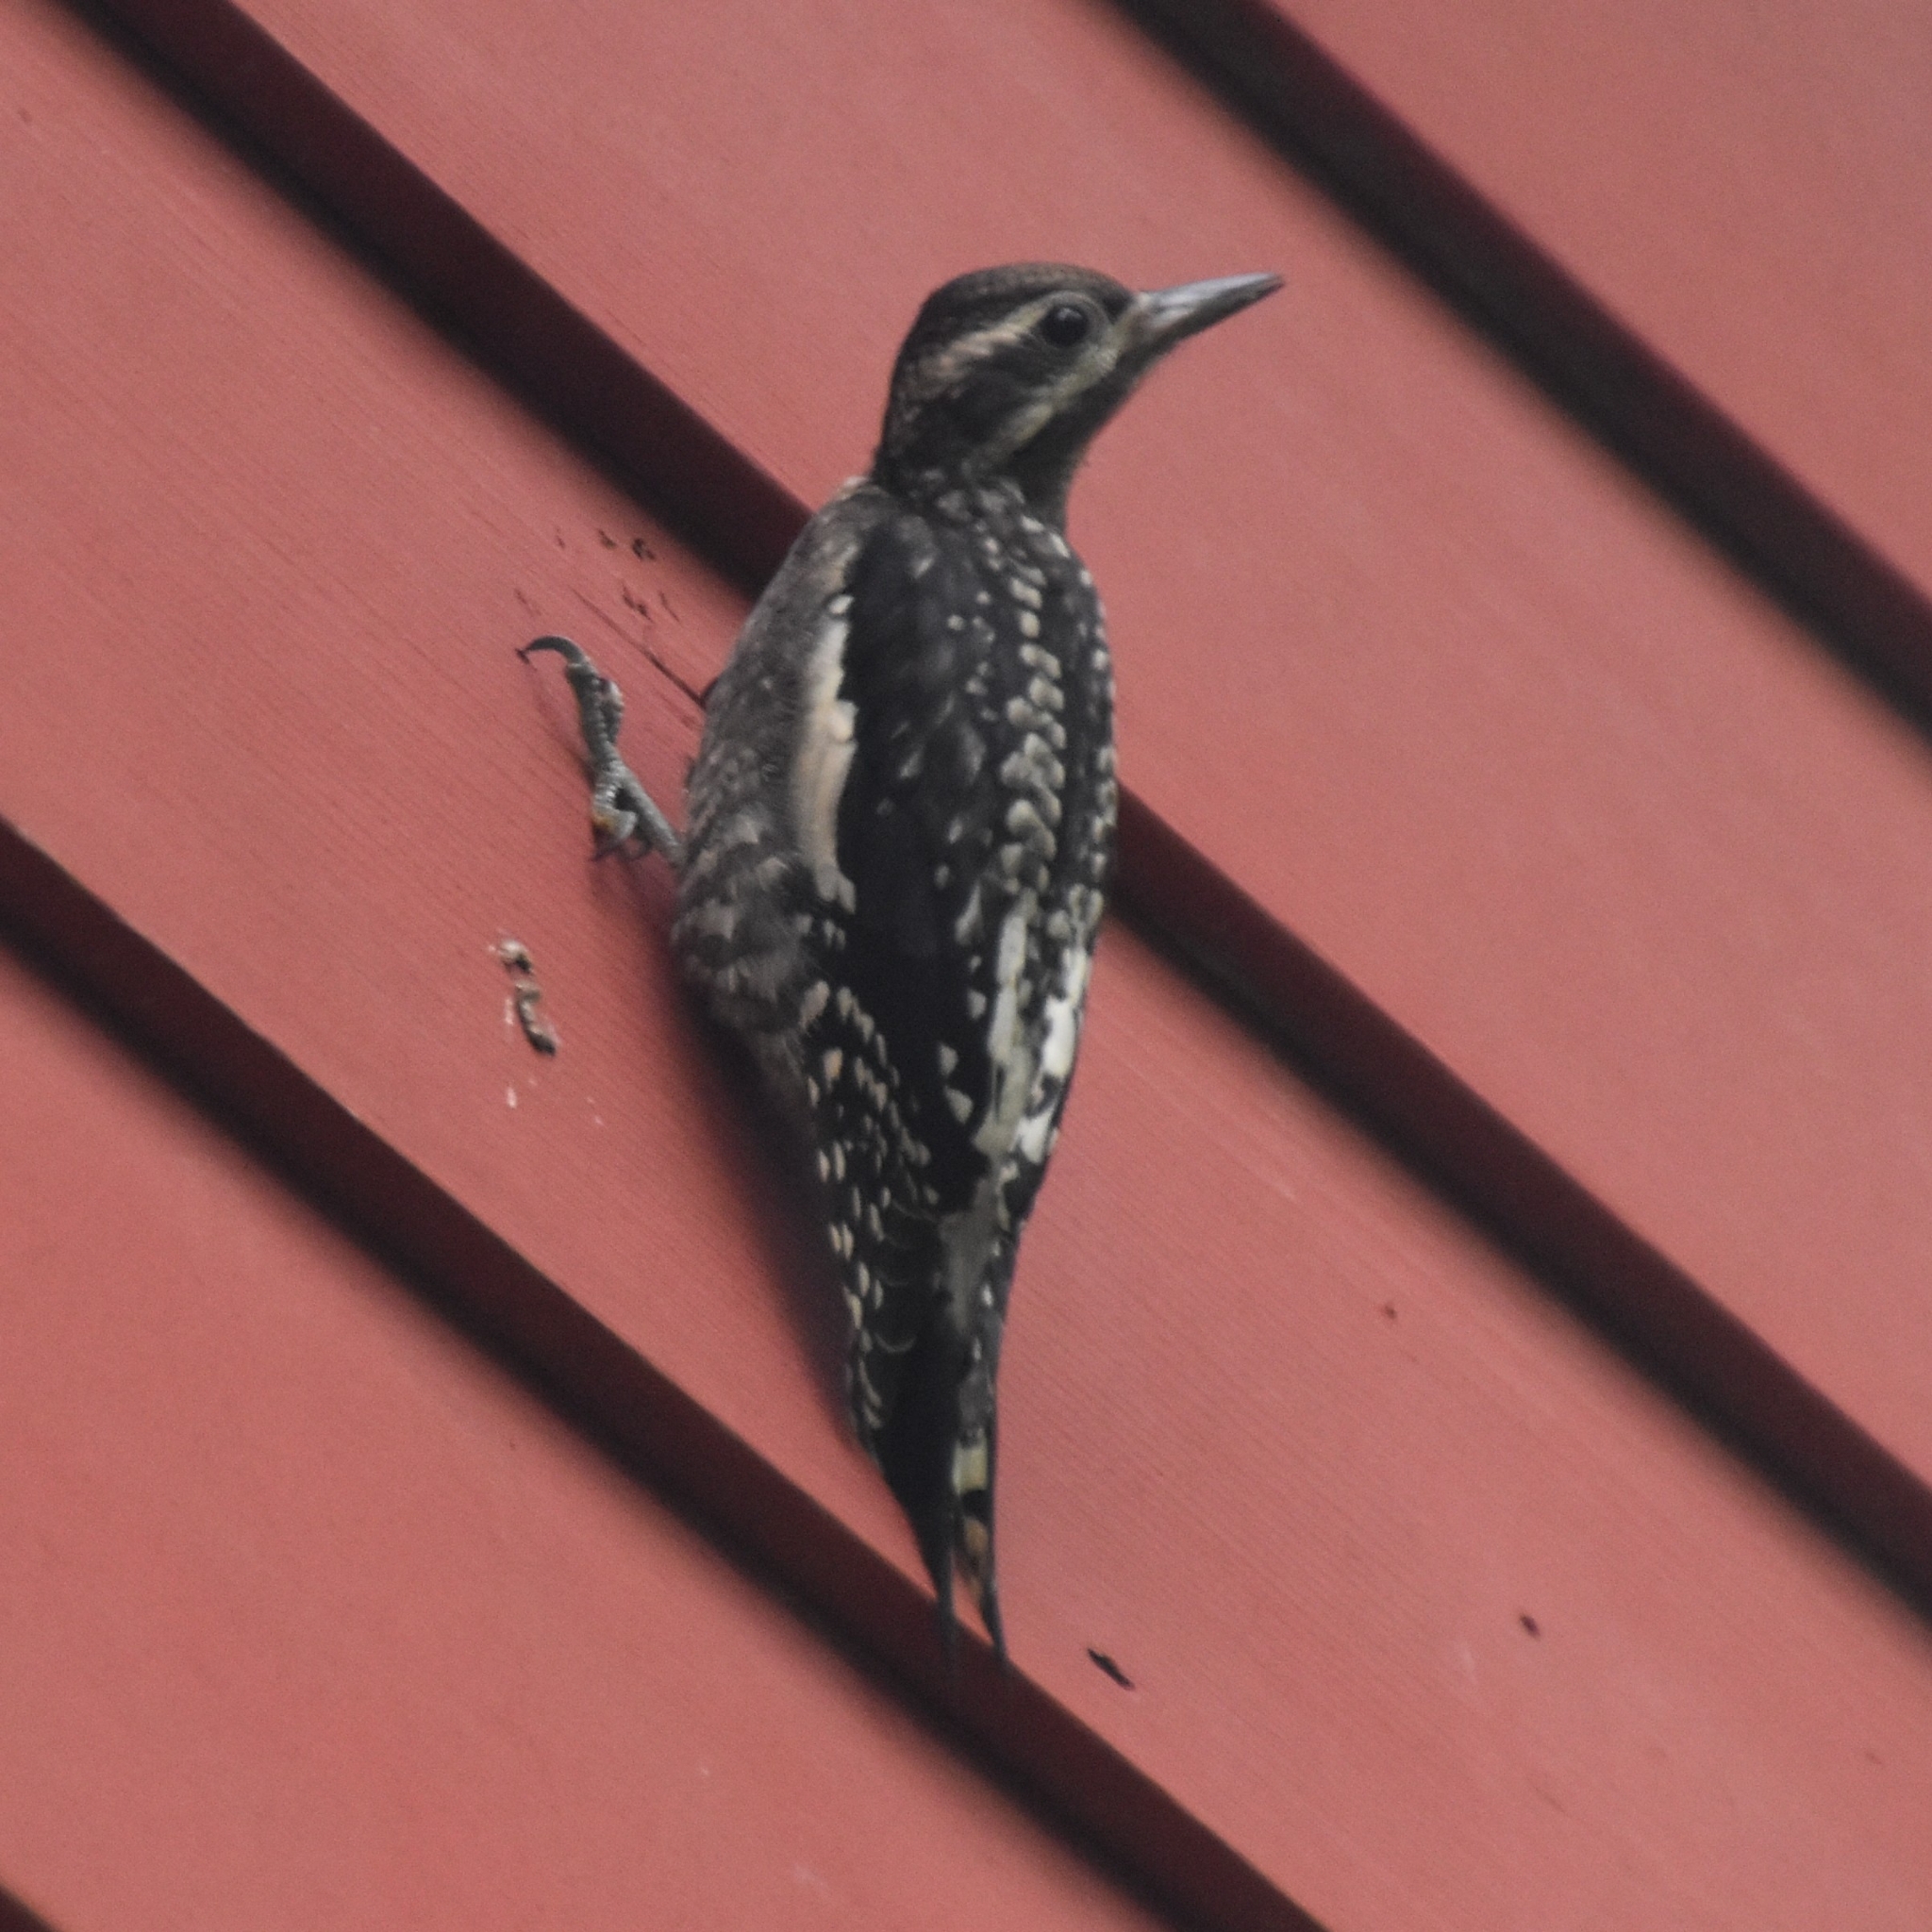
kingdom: Animalia
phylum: Chordata
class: Aves
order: Piciformes
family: Picidae
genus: Sphyrapicus
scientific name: Sphyrapicus varius
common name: Yellow-bellied sapsucker
